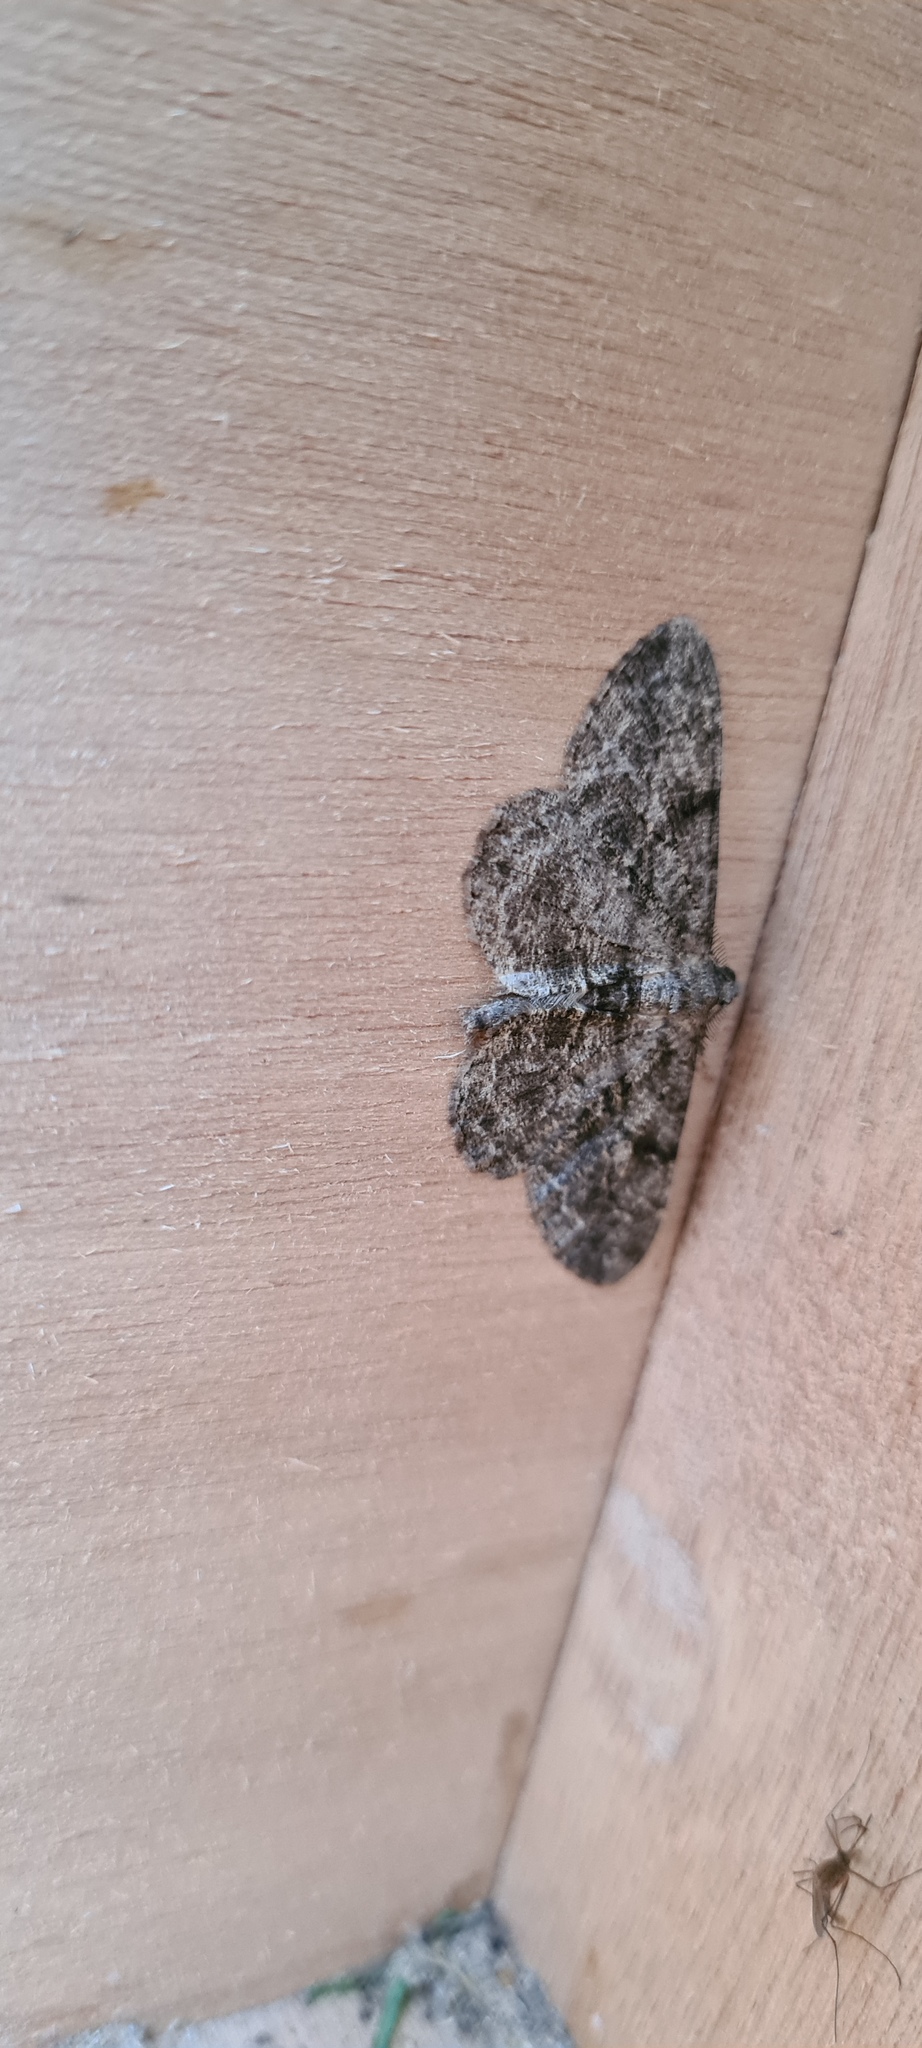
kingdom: Animalia
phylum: Arthropoda
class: Insecta
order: Lepidoptera
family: Geometridae
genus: Peribatodes
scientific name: Peribatodes rhomboidaria
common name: Willow beauty
